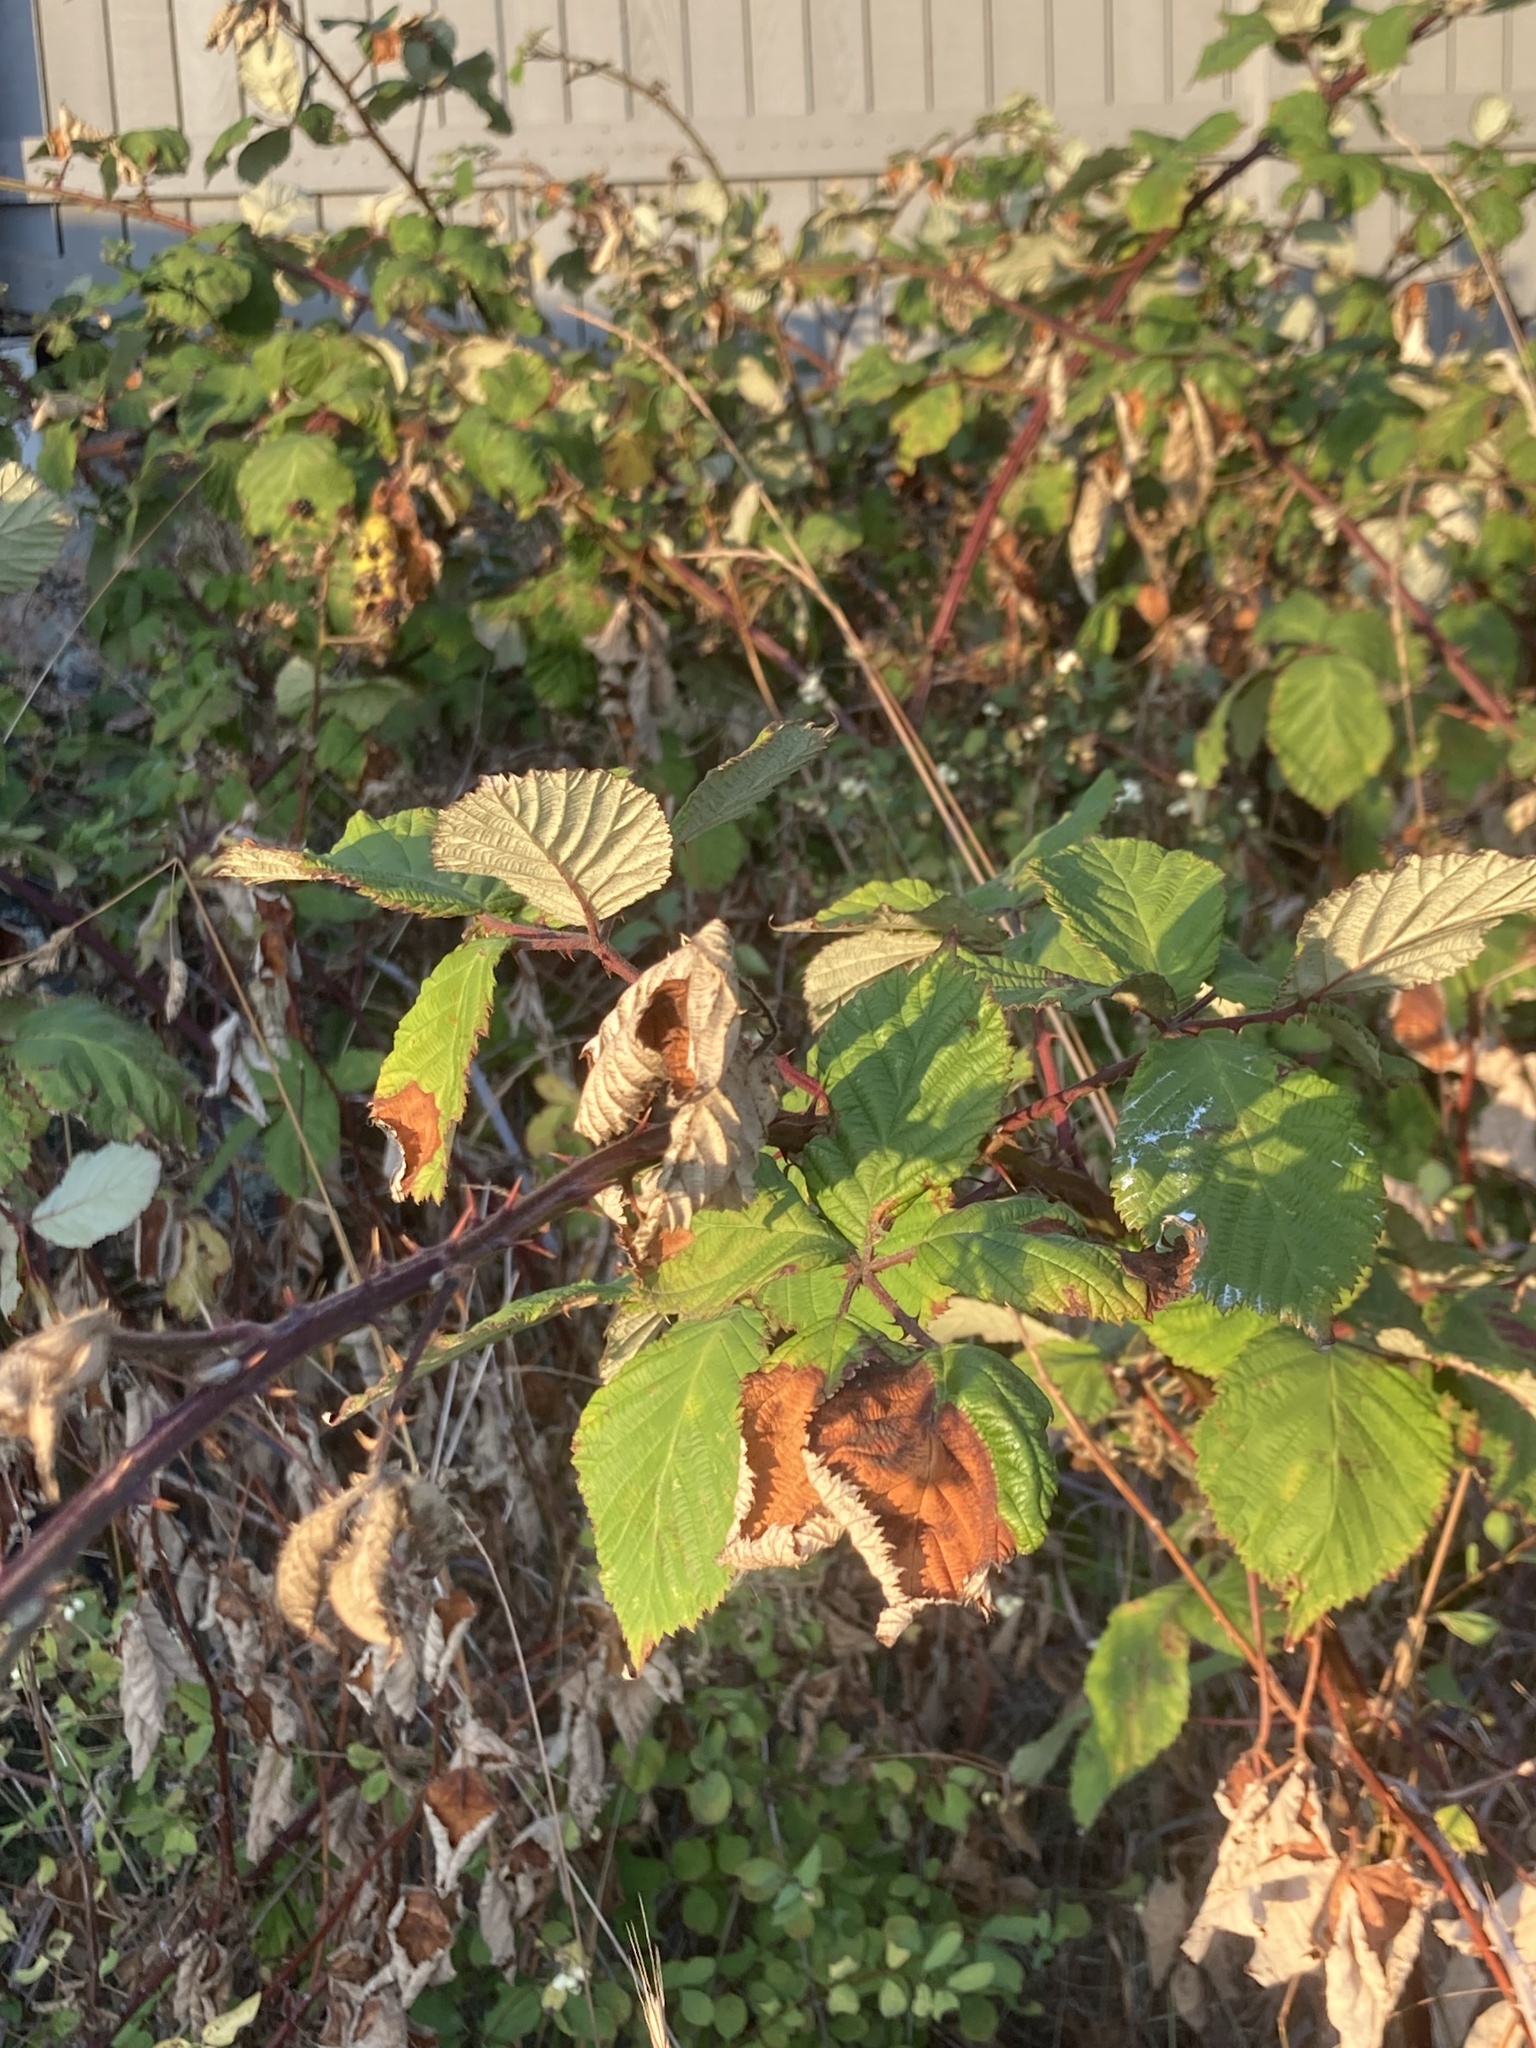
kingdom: Plantae
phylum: Tracheophyta
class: Magnoliopsida
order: Rosales
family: Rosaceae
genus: Rubus
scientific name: Rubus armeniacus
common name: Himalayan blackberry
